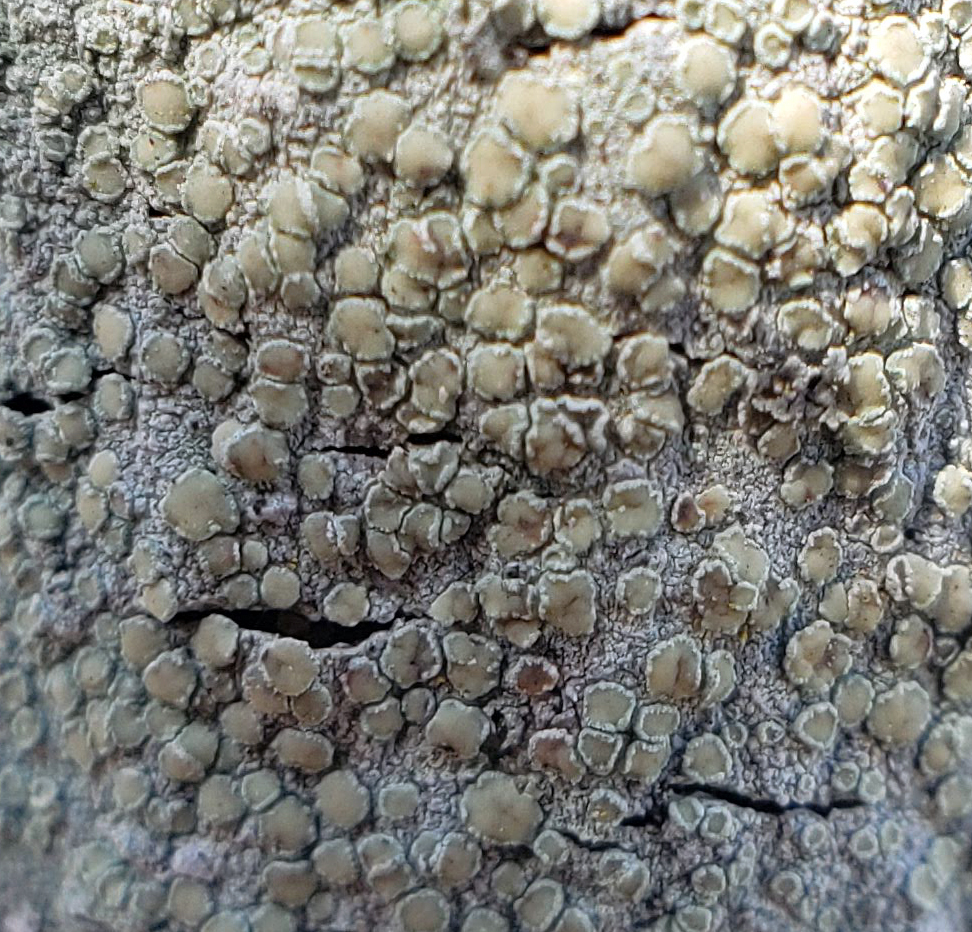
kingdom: Fungi
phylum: Ascomycota
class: Lecanoromycetes
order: Lecanorales
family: Lecanoraceae
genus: Lecanora
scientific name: Lecanora strobilina
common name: Mealy rim-lichen
